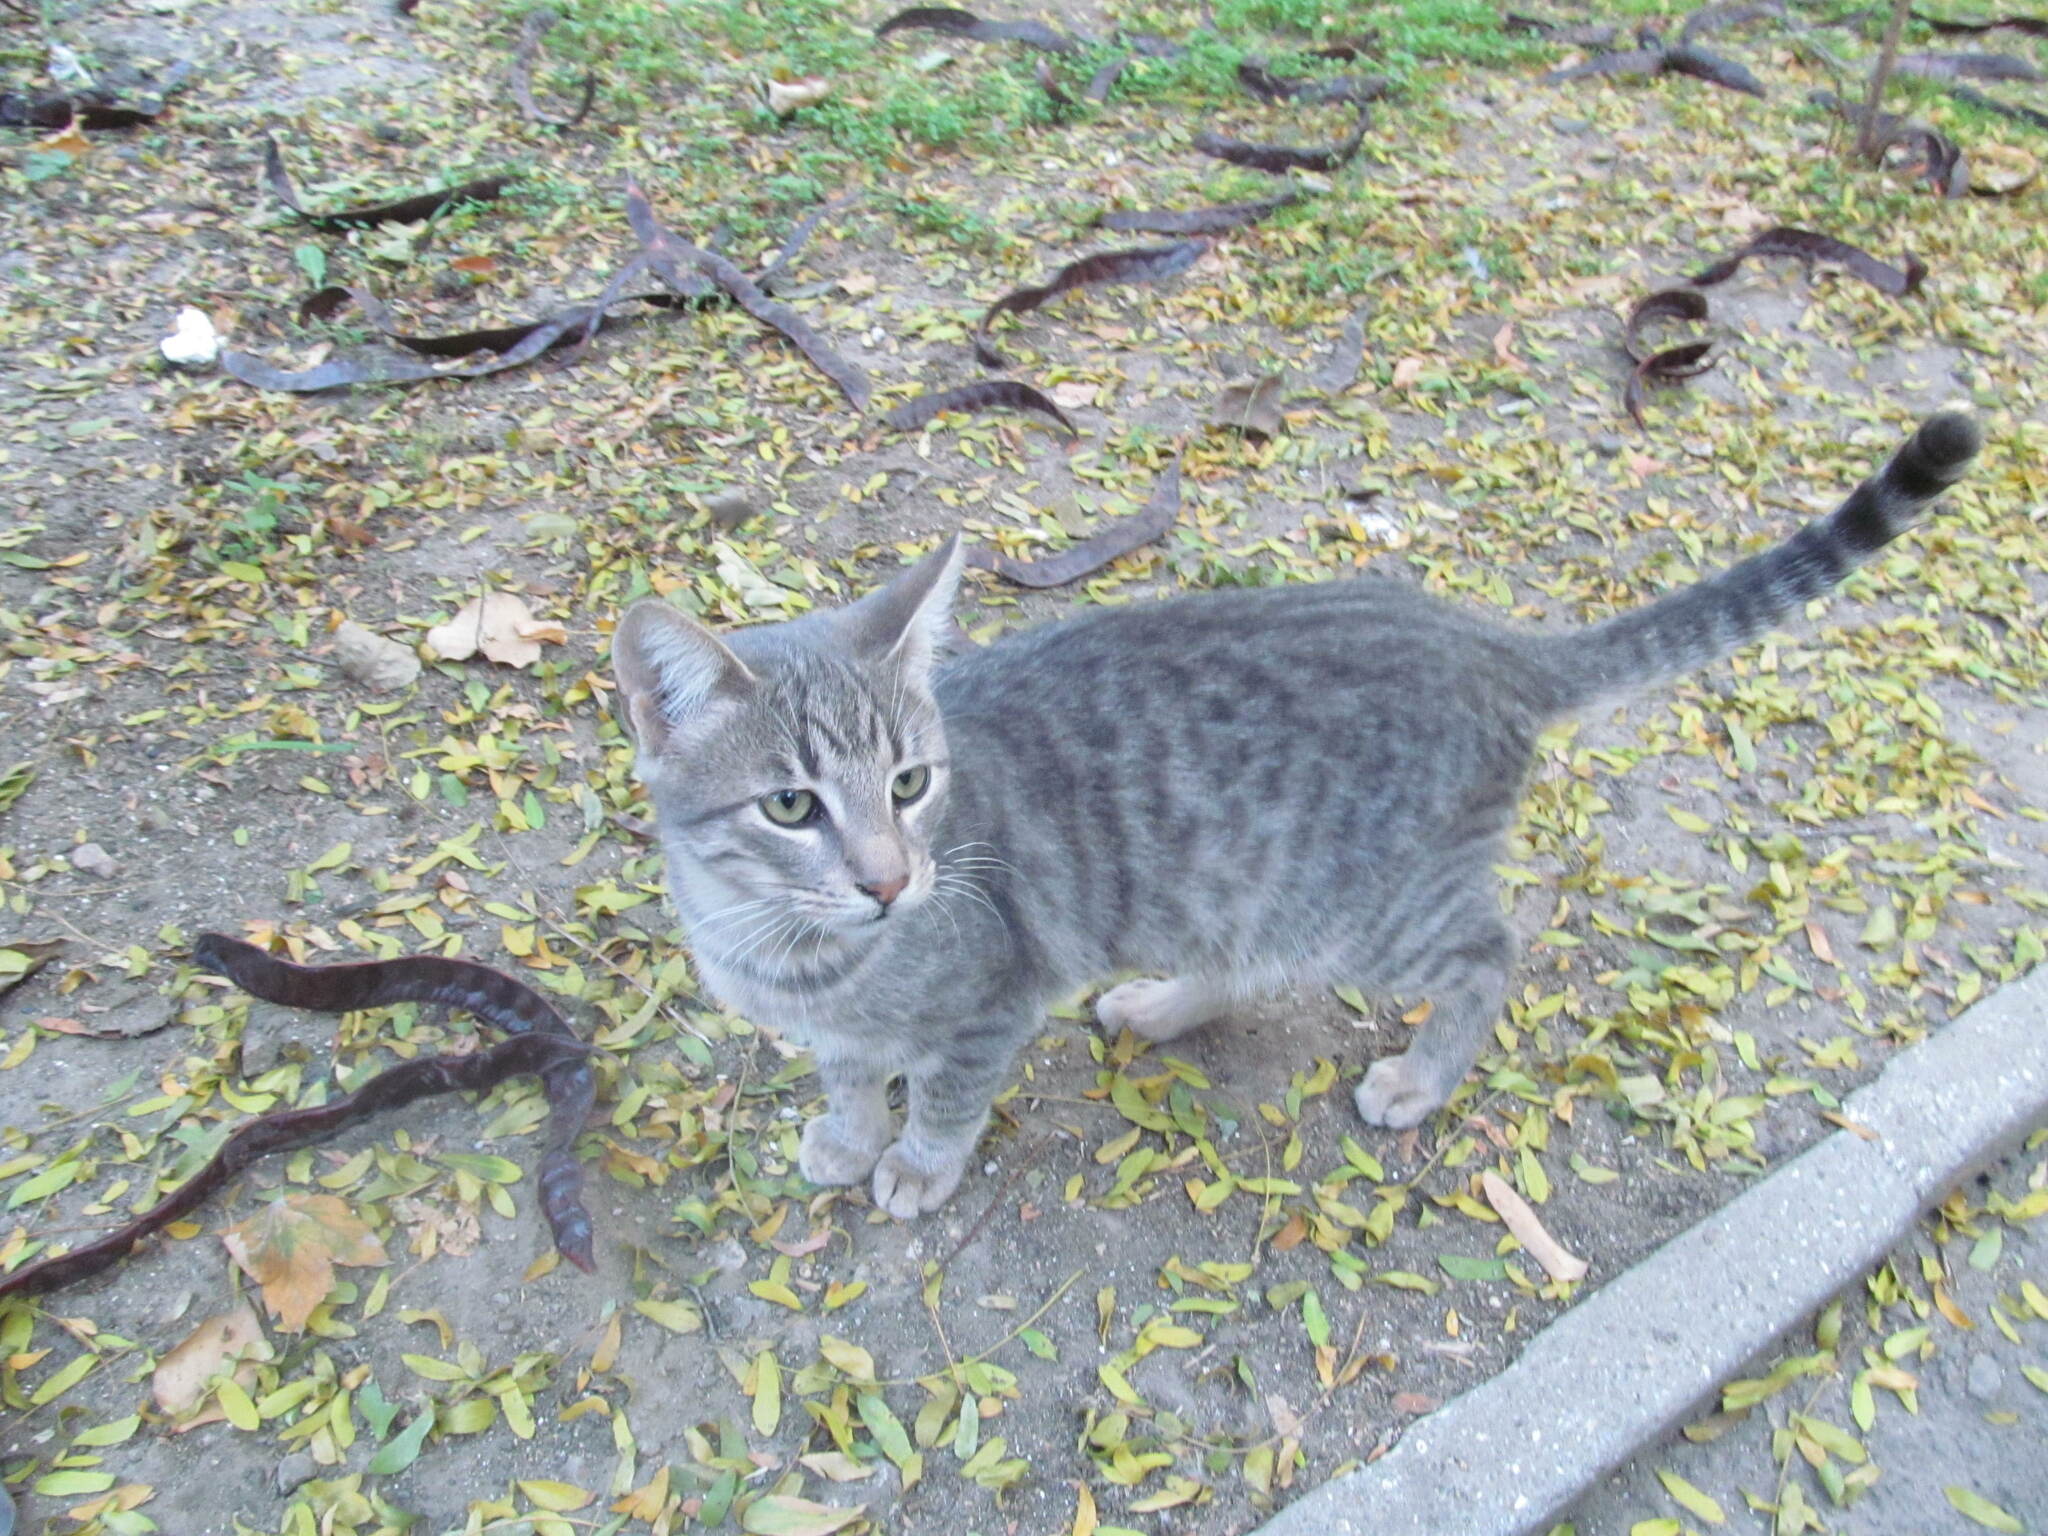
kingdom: Animalia
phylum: Chordata
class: Mammalia
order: Carnivora
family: Felidae
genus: Felis
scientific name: Felis catus
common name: Domestic cat
